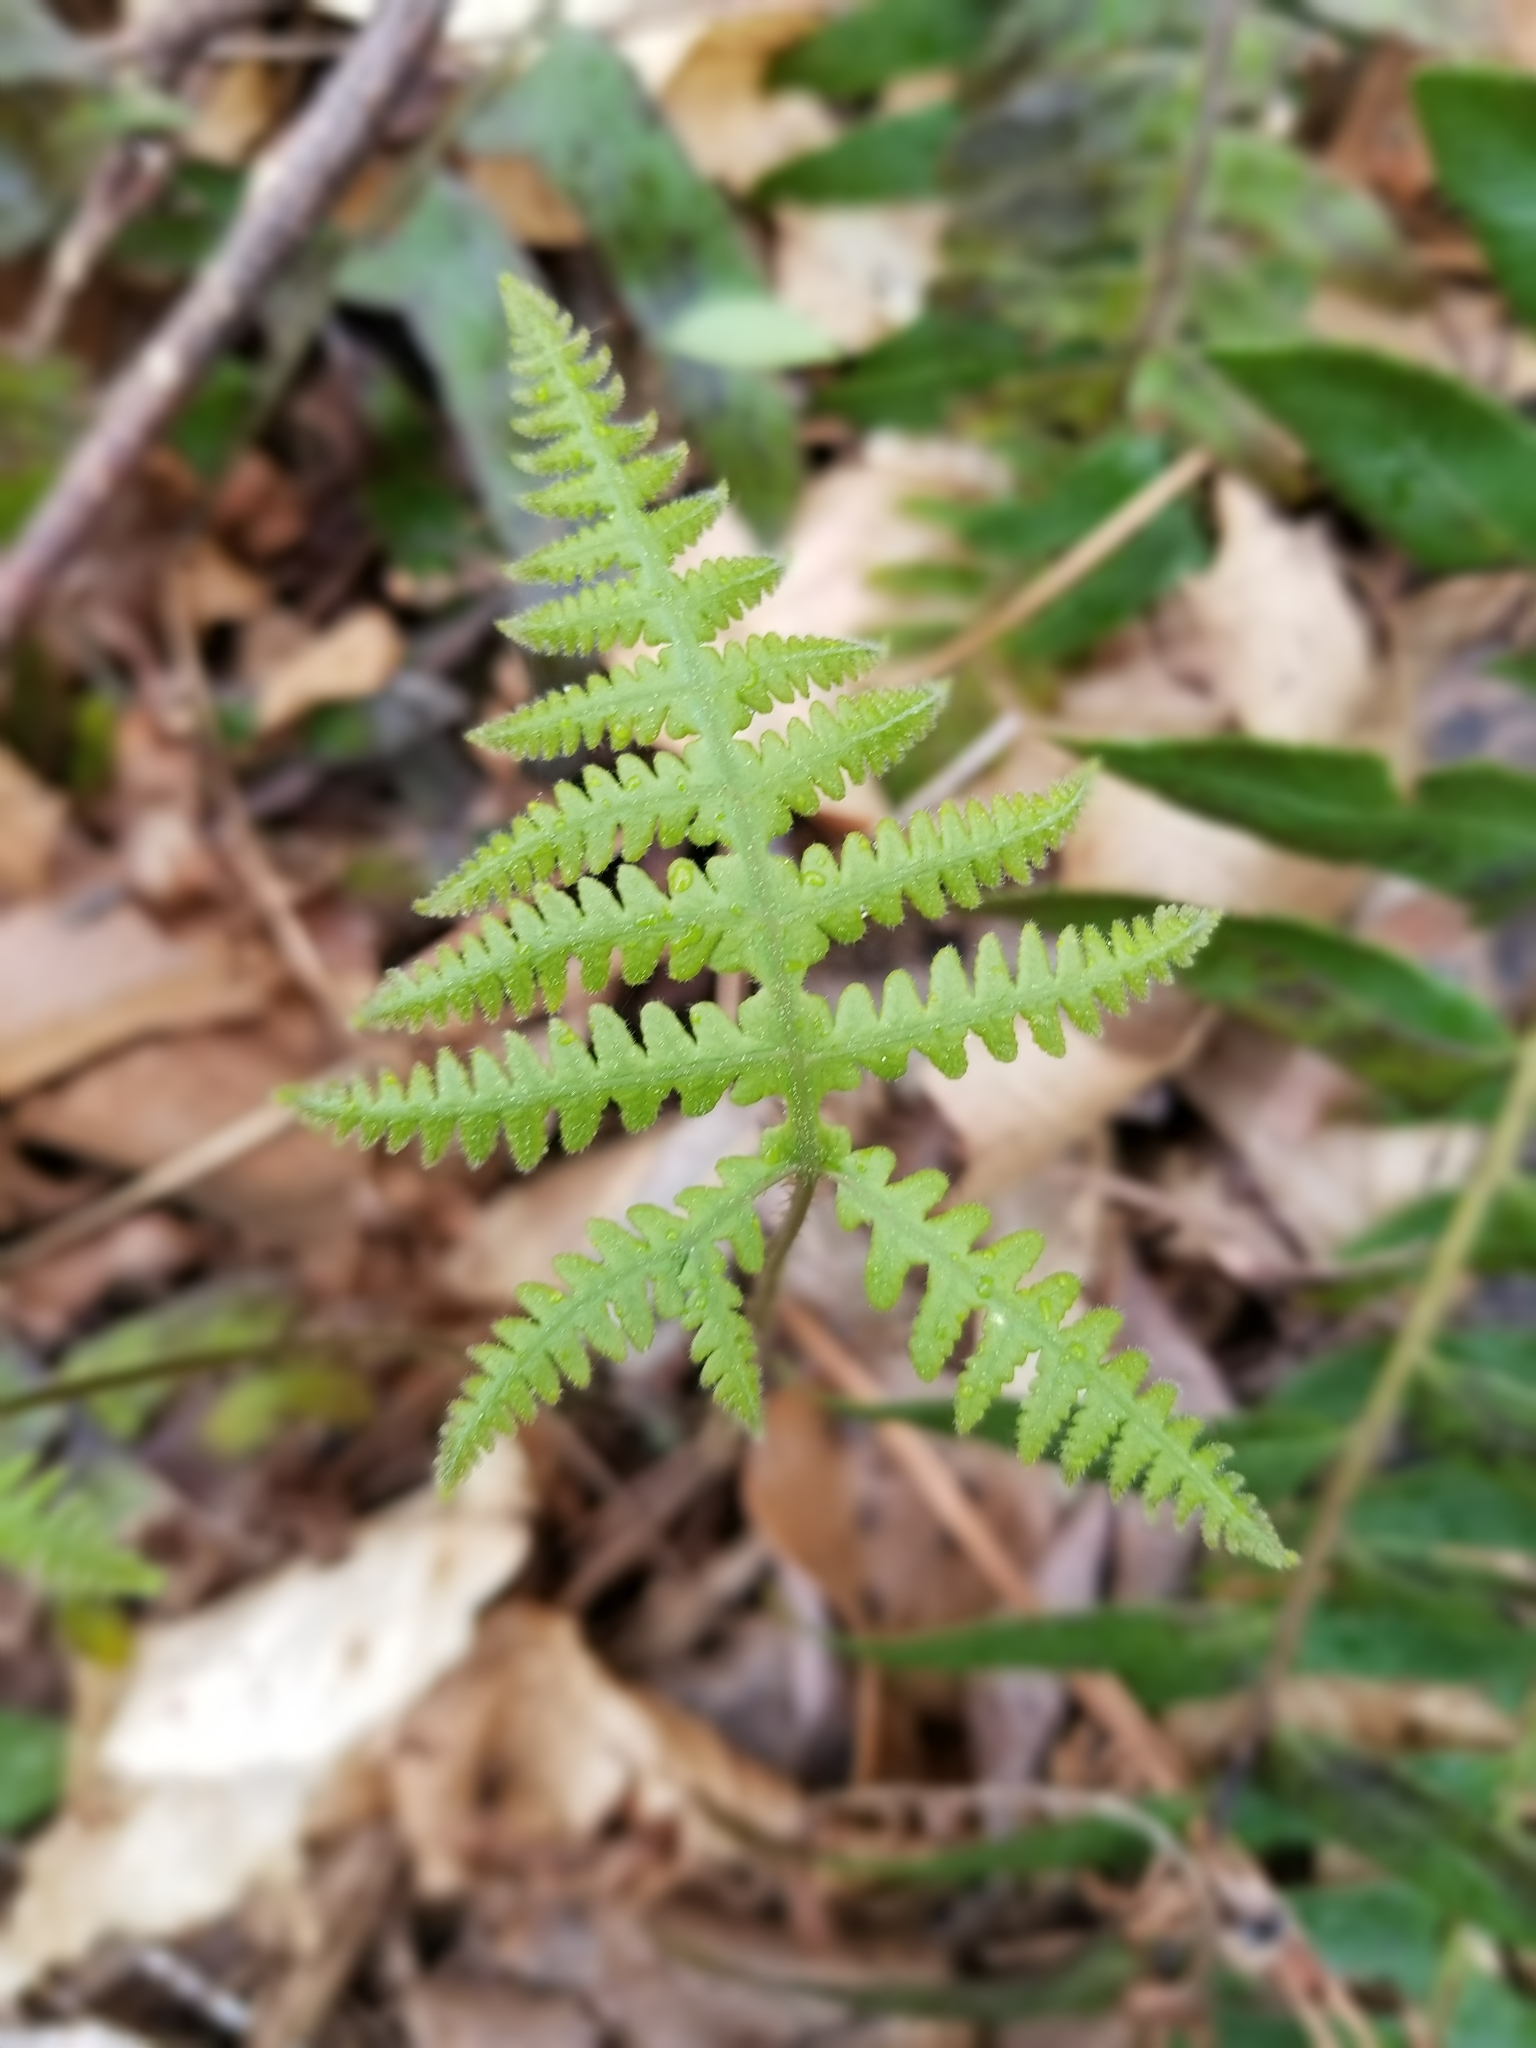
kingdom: Plantae
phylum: Tracheophyta
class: Polypodiopsida
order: Polypodiales
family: Thelypteridaceae
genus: Phegopteris
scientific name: Phegopteris hexagonoptera
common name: Broad beech fern
